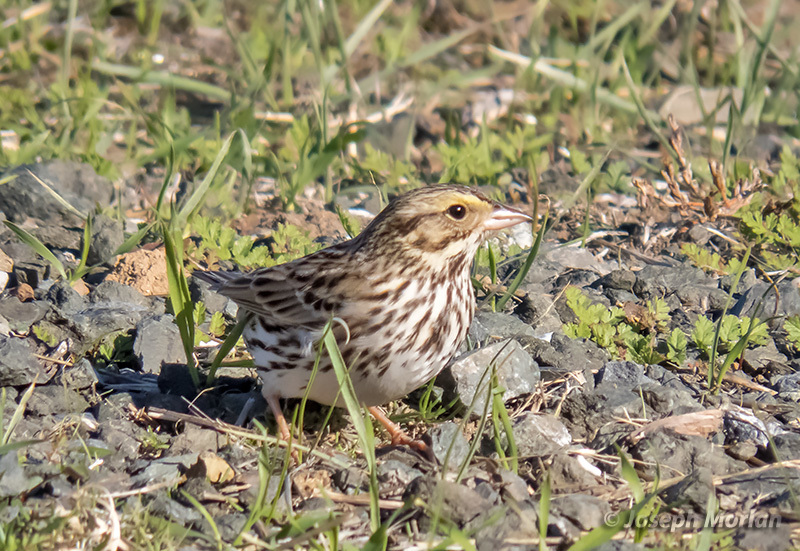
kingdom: Animalia
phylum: Chordata
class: Aves
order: Passeriformes
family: Passerellidae
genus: Passerculus
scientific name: Passerculus sandwichensis
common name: Savannah sparrow
